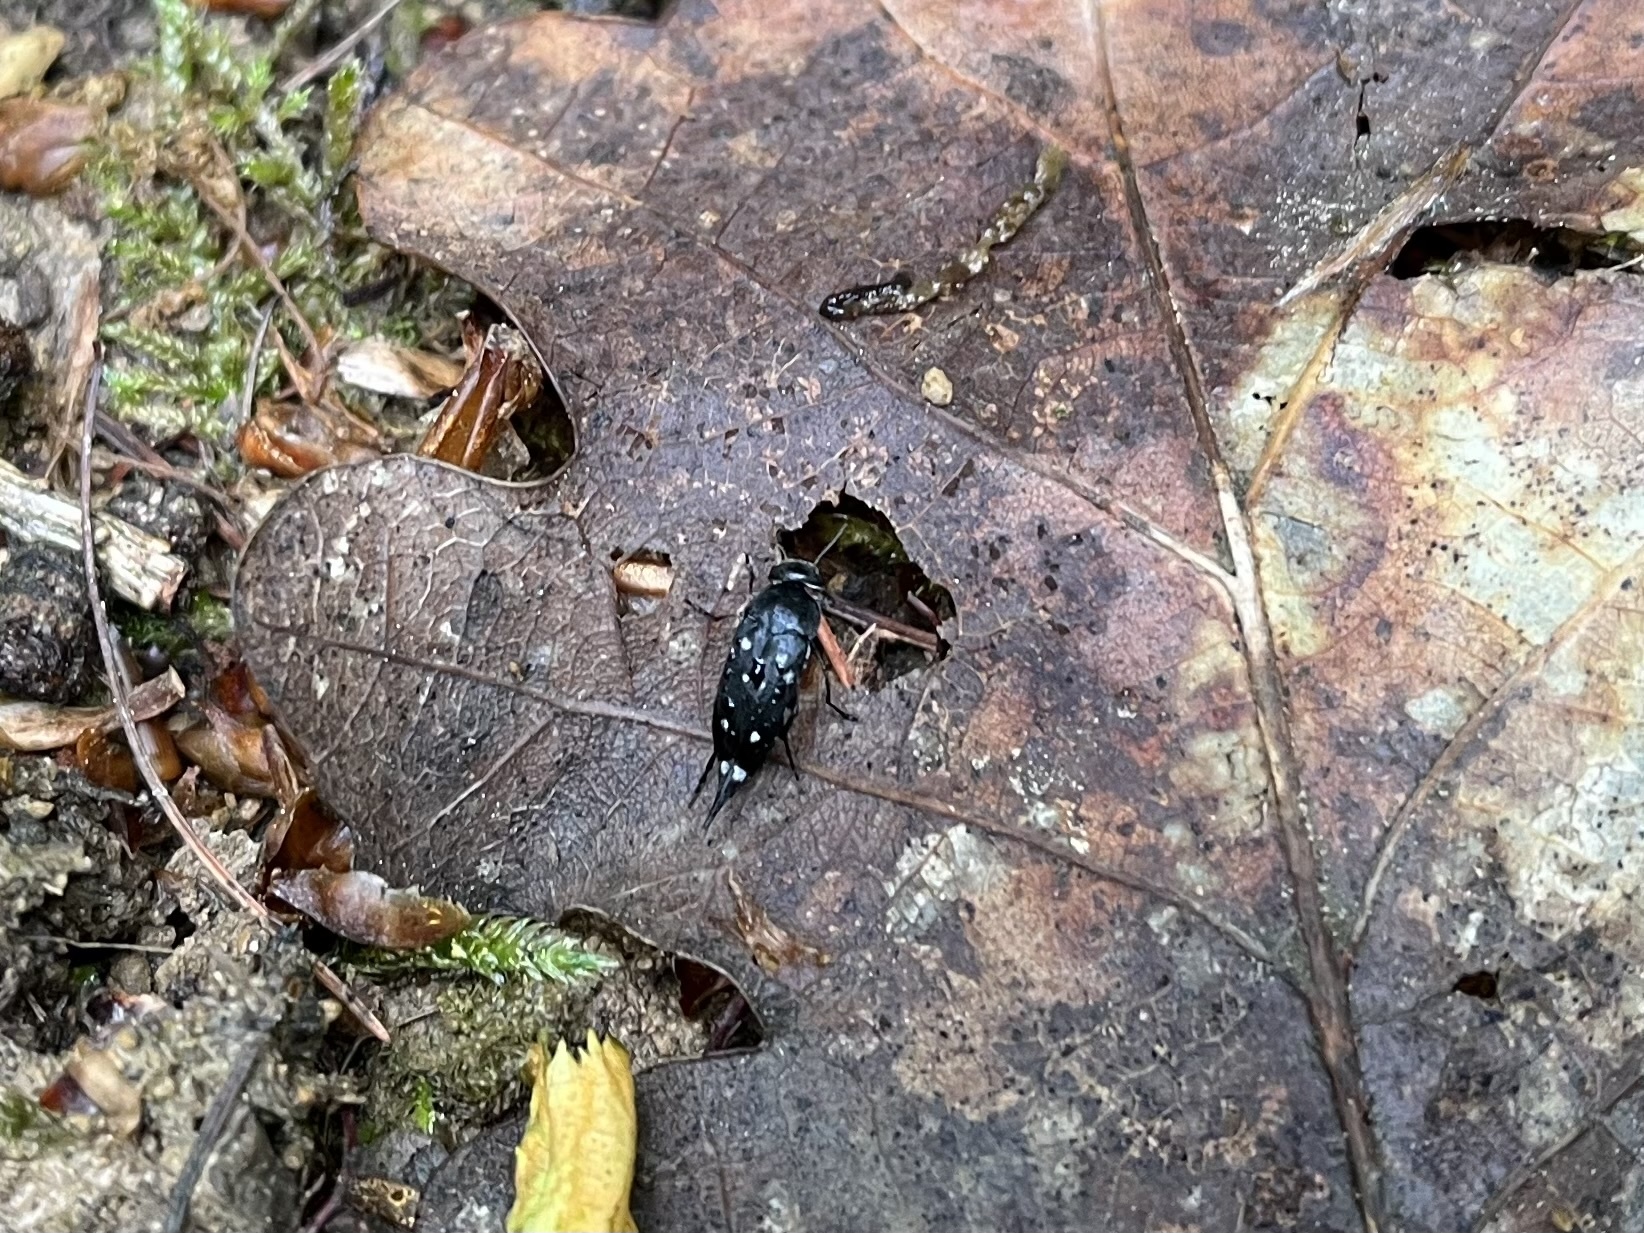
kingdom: Animalia
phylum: Arthropoda
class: Insecta
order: Coleoptera
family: Mordellidae
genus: Hoshihananomia
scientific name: Hoshihananomia perlata
